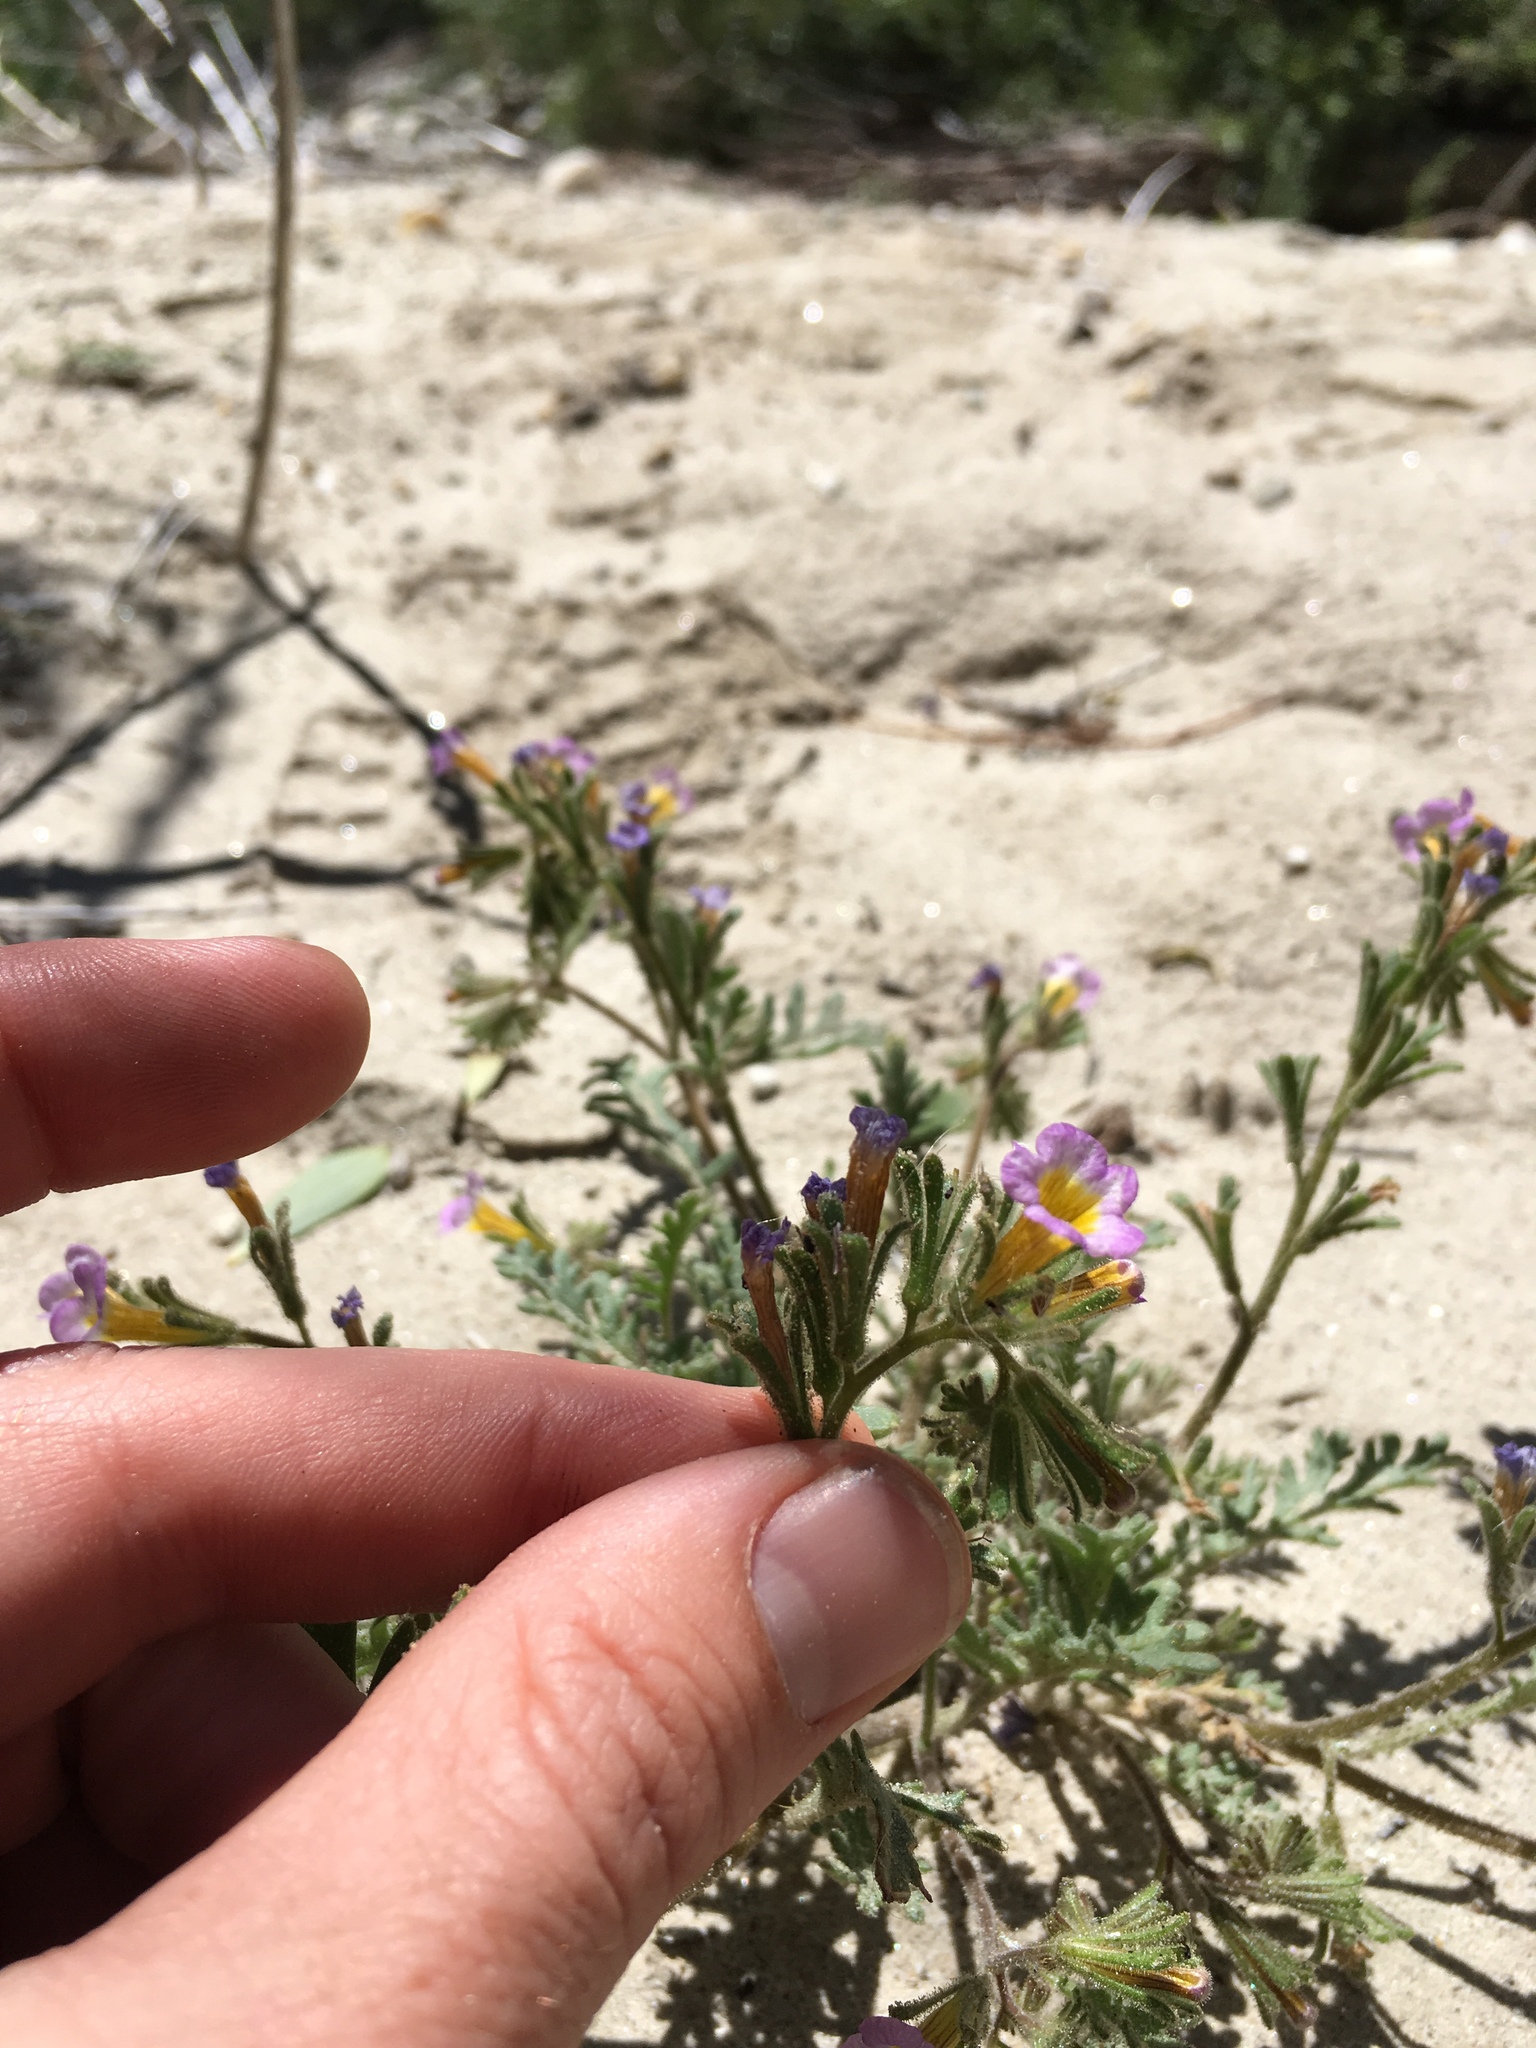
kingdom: Plantae
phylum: Tracheophyta
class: Magnoliopsida
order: Boraginales
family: Hydrophyllaceae
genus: Phacelia
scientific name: Phacelia bicolor
